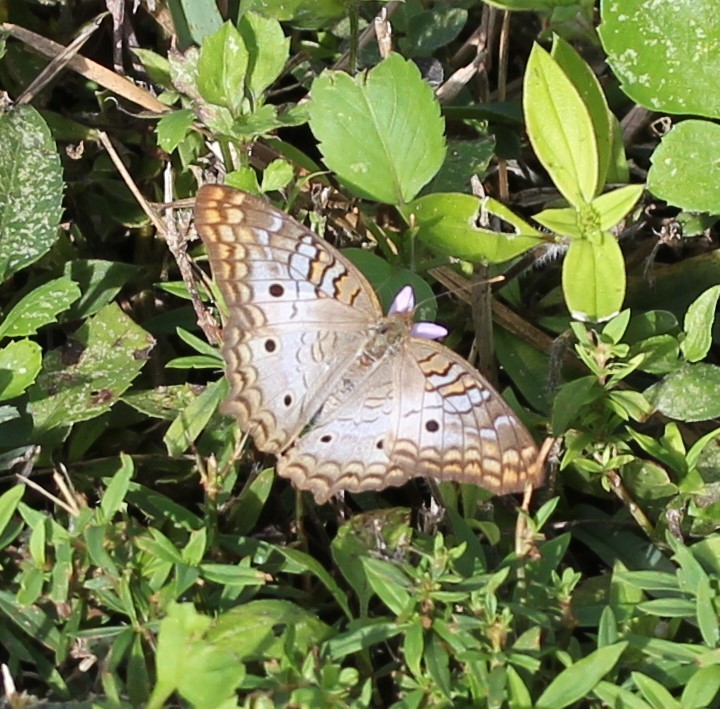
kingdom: Animalia
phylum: Arthropoda
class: Insecta
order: Lepidoptera
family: Nymphalidae
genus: Anartia
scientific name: Anartia jatrophae
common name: White peacock
